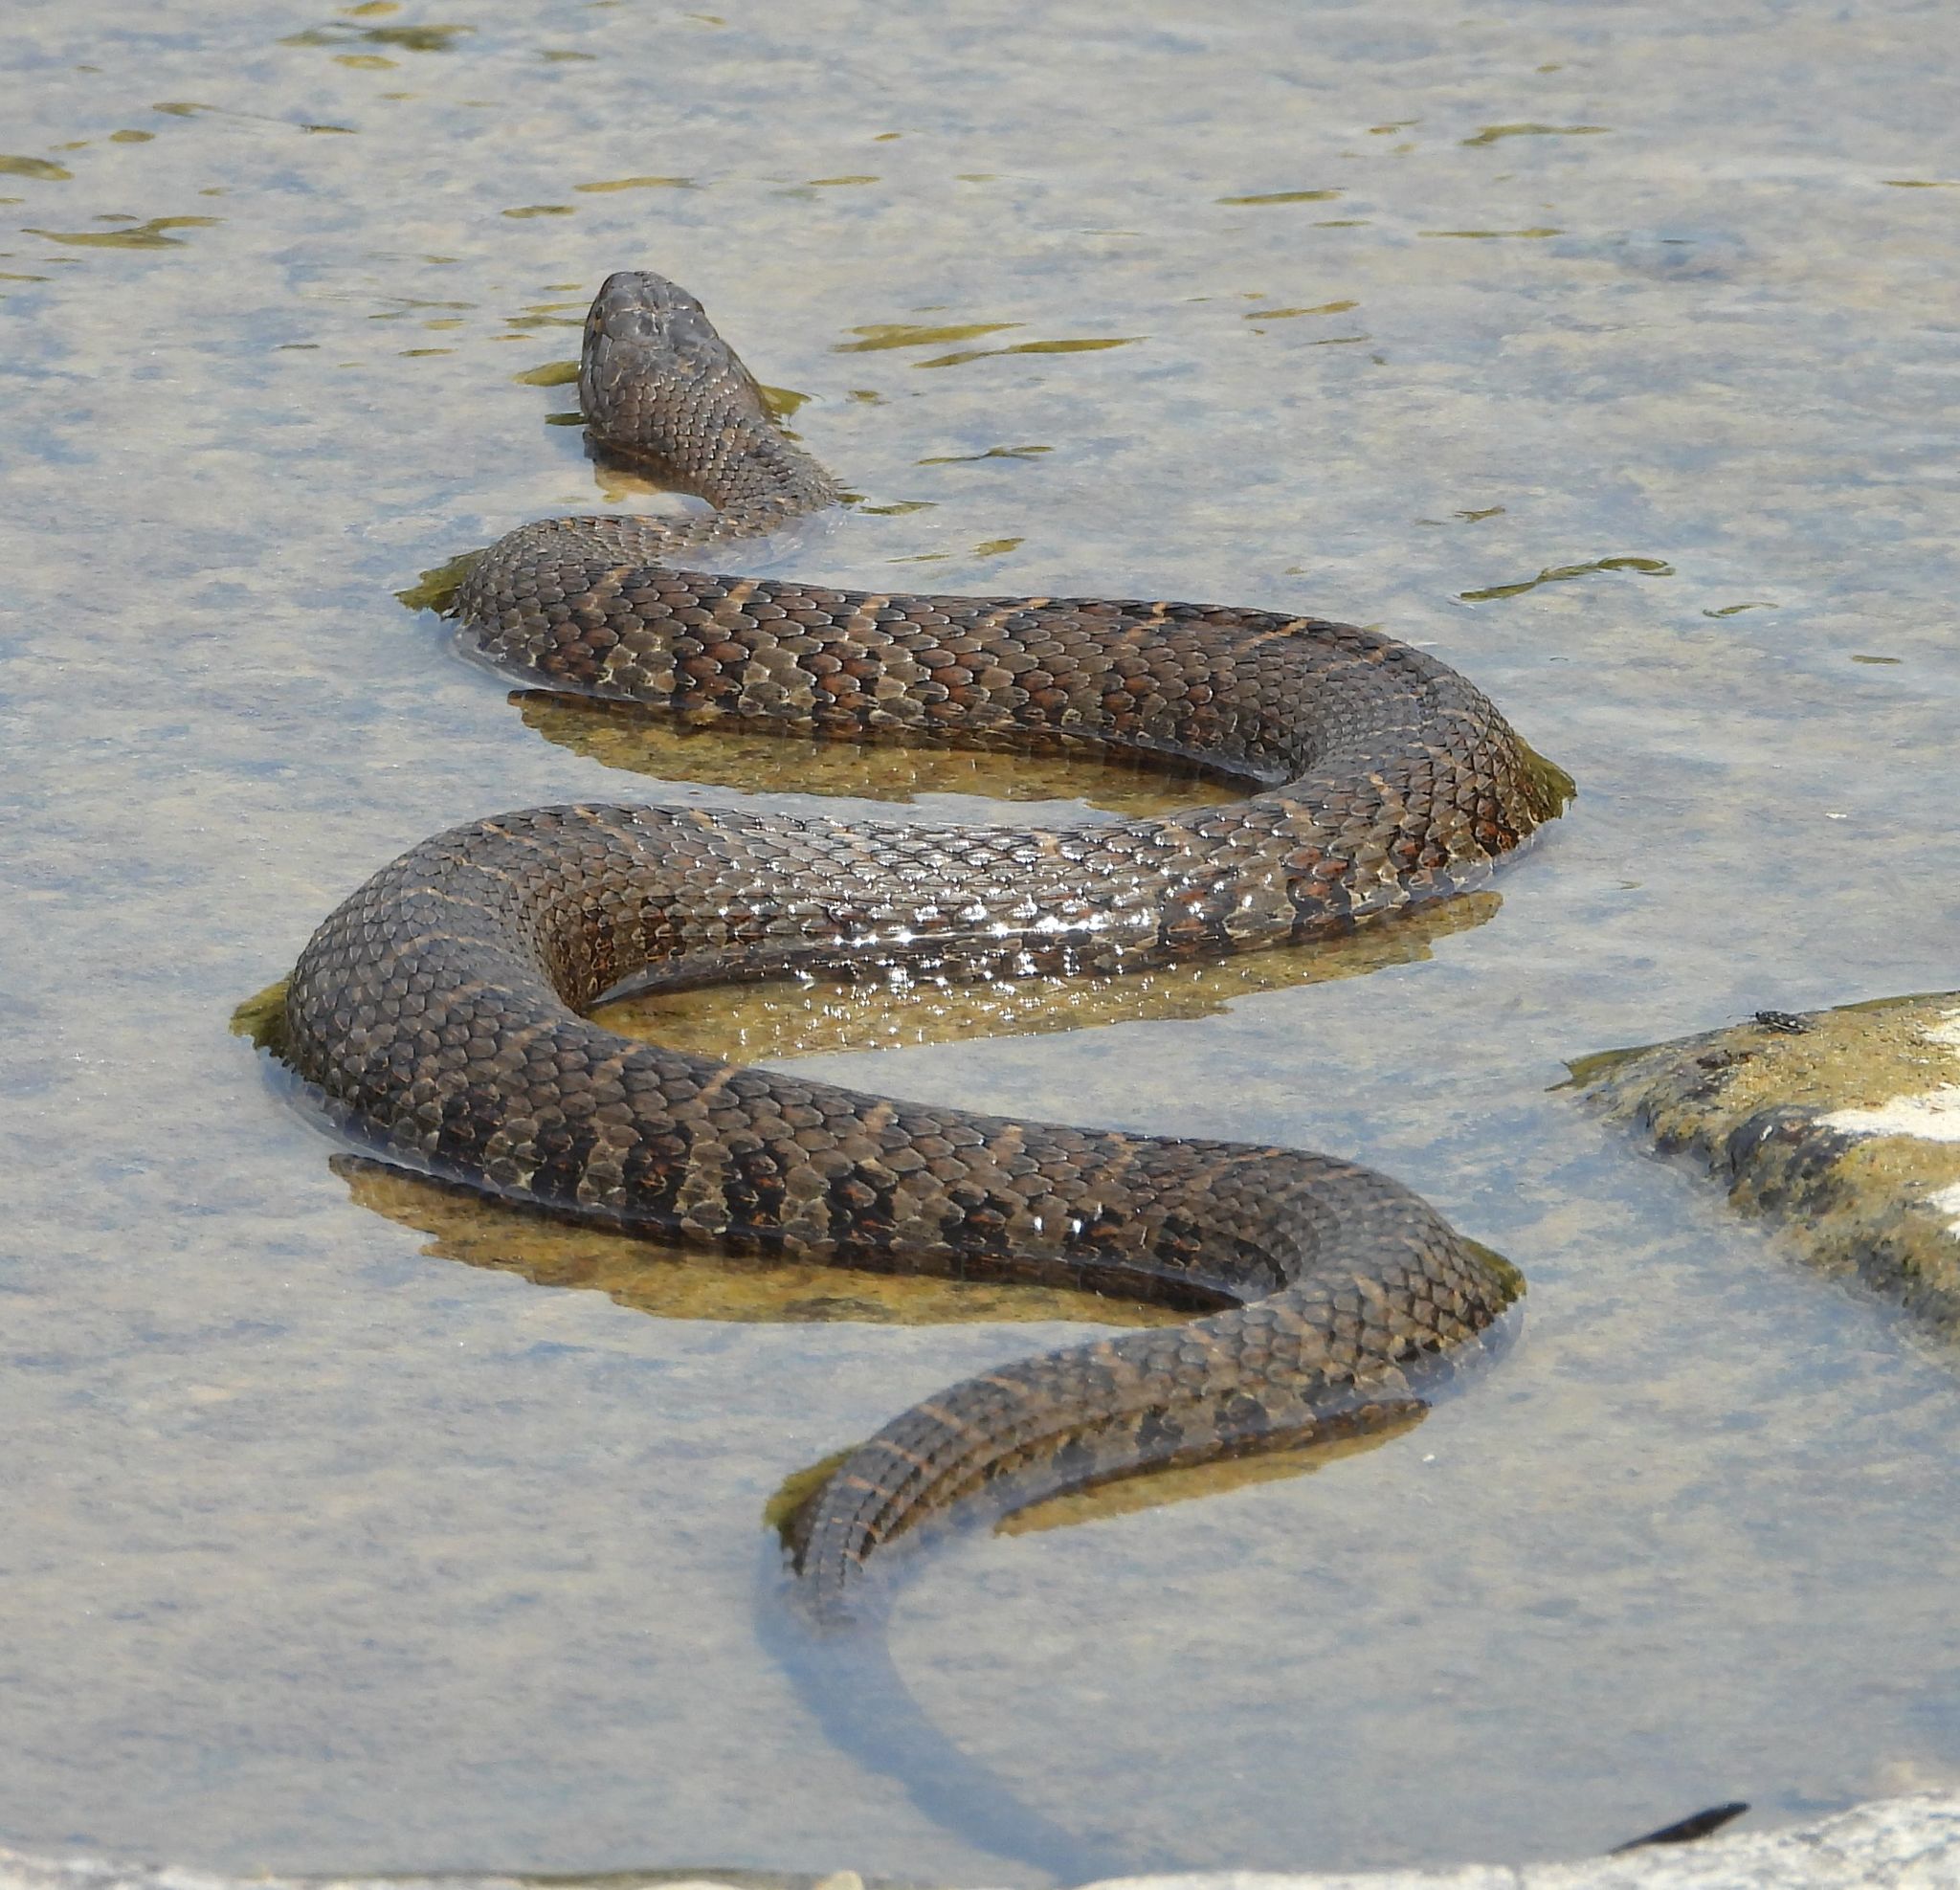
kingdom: Animalia
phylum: Chordata
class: Squamata
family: Colubridae
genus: Nerodia
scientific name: Nerodia sipedon
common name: Northern water snake
